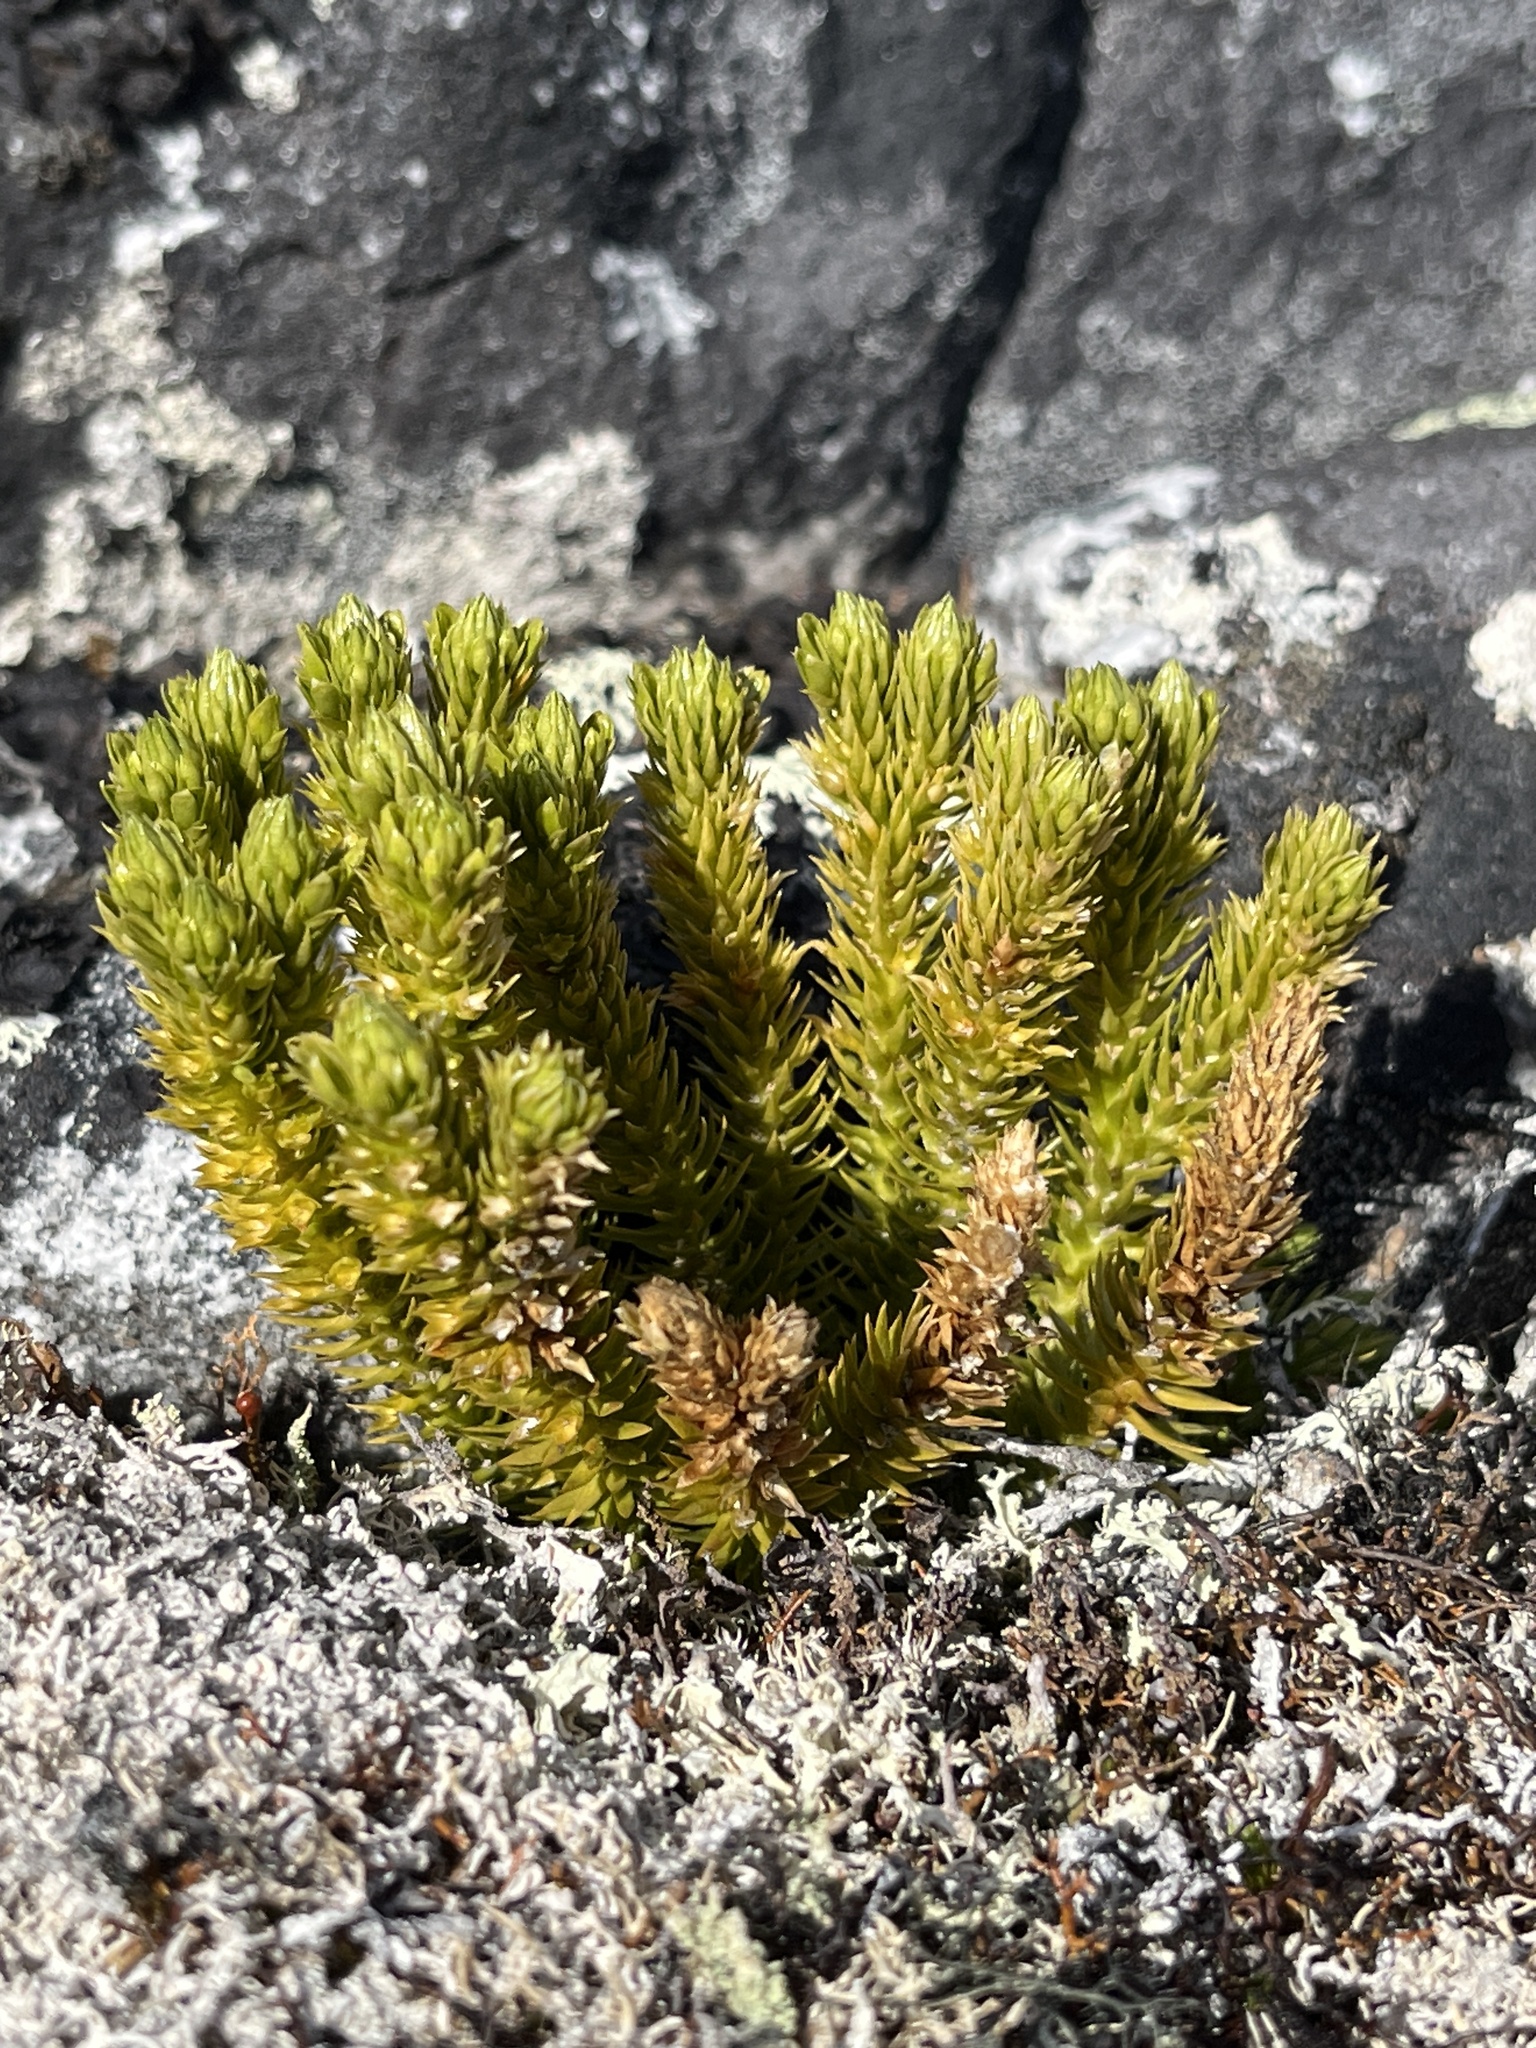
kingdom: Plantae
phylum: Tracheophyta
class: Lycopodiopsida
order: Lycopodiales
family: Lycopodiaceae
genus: Huperzia
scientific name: Huperzia selago
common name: Northern firmoss
